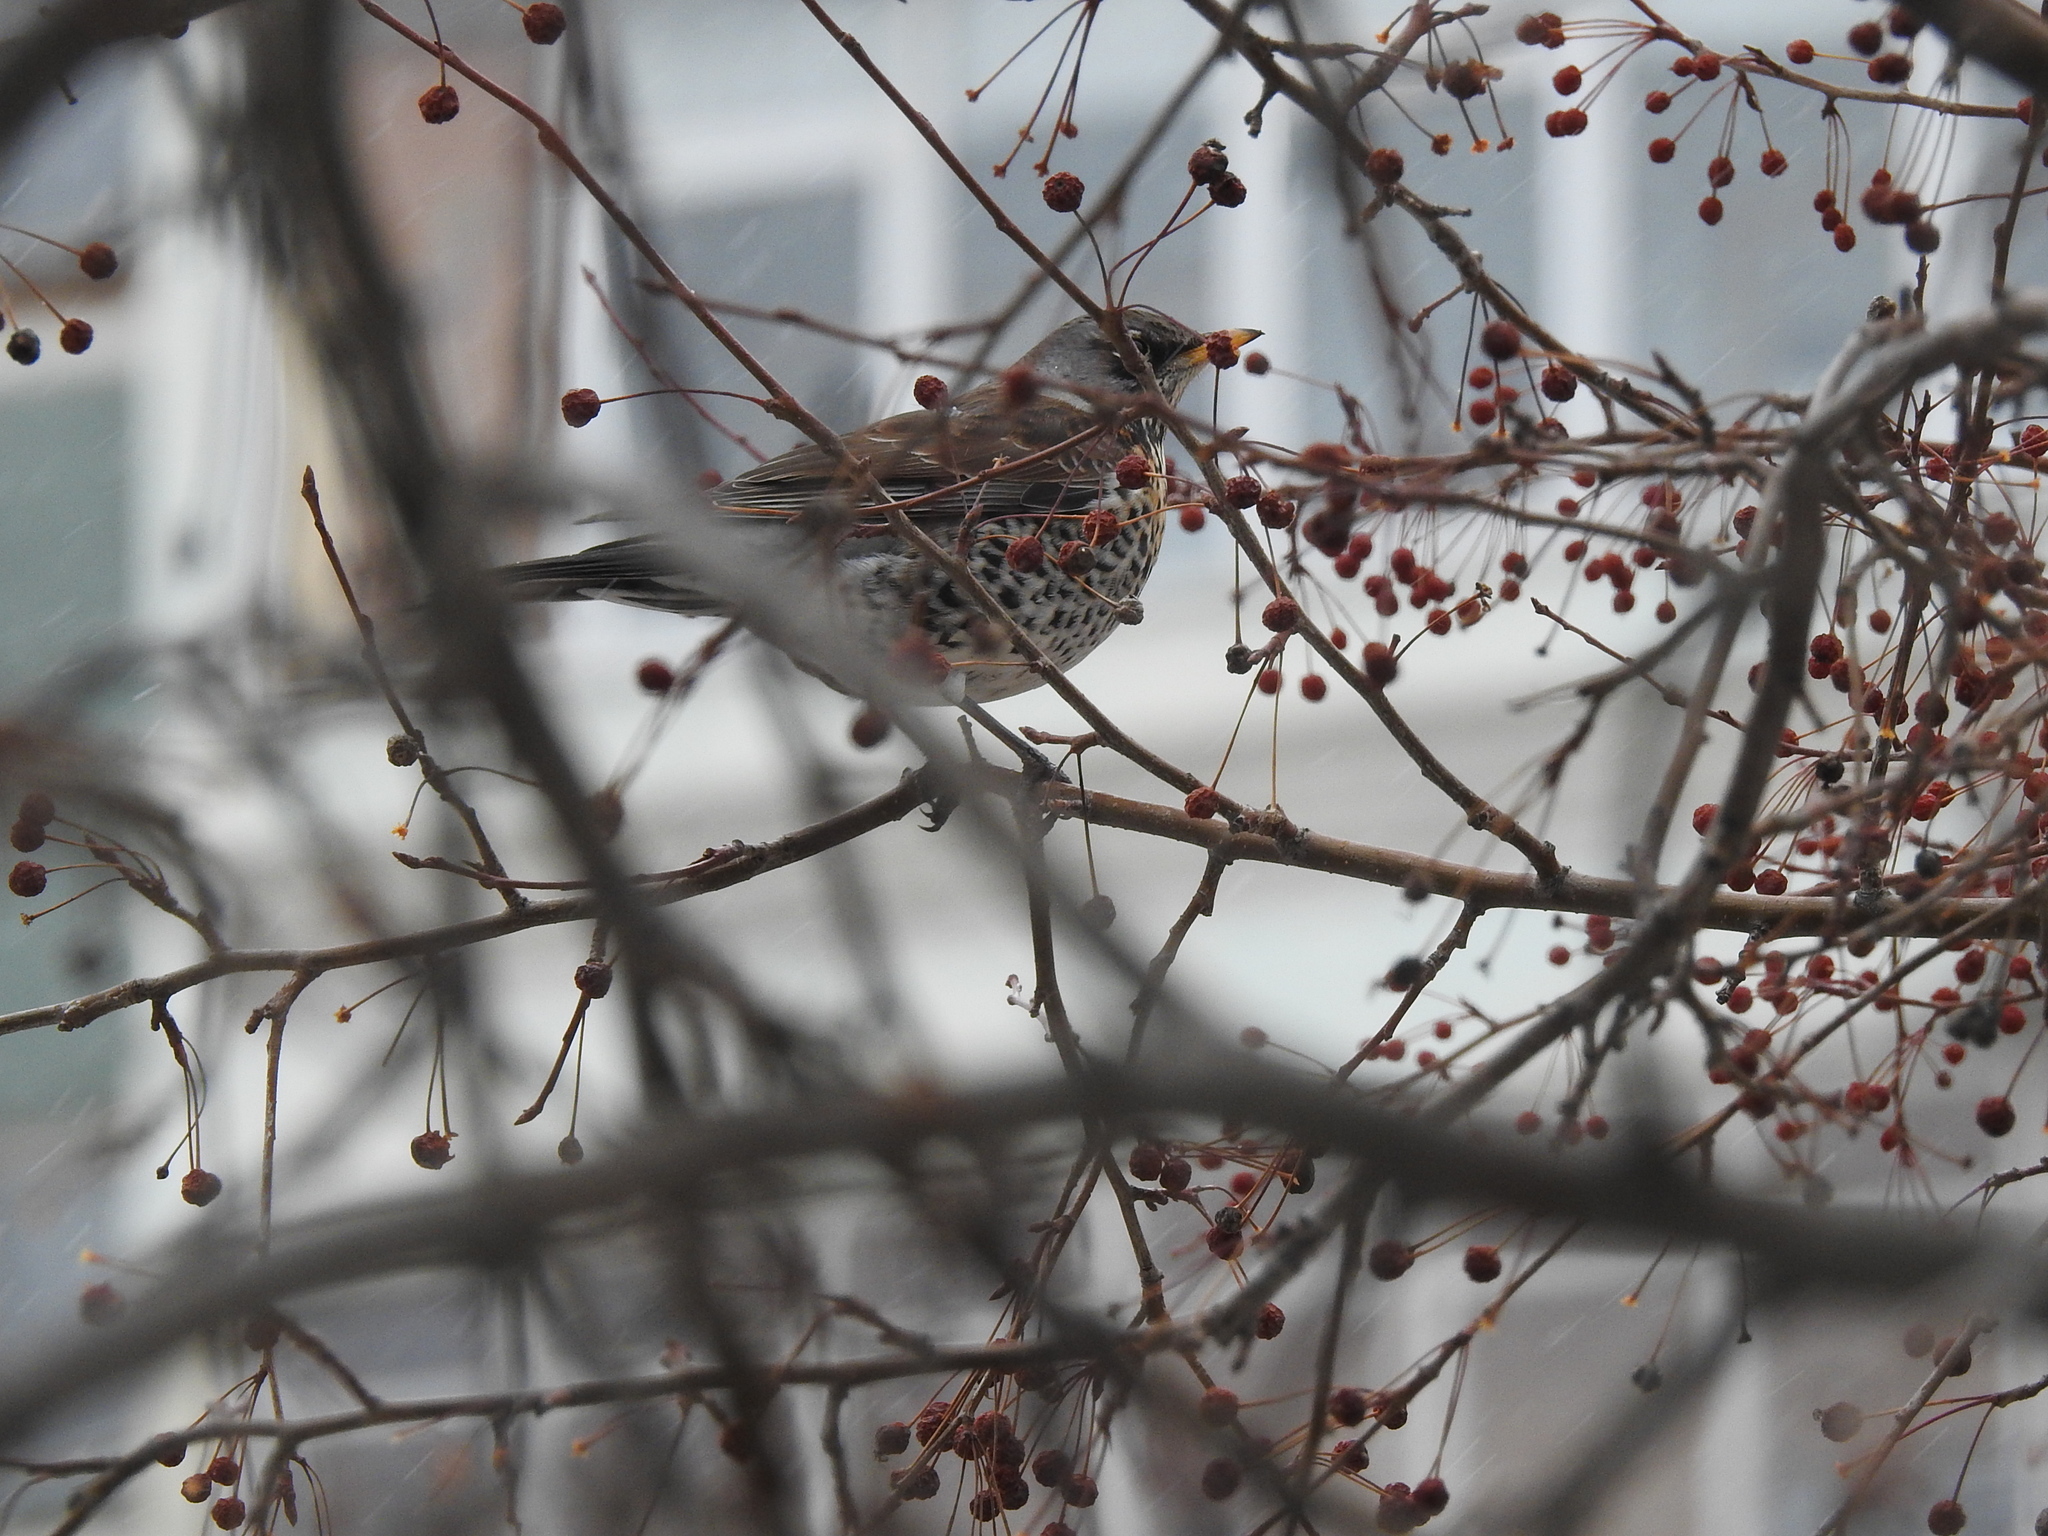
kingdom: Animalia
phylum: Chordata
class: Aves
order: Passeriformes
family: Turdidae
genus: Turdus
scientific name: Turdus pilaris
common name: Fieldfare
